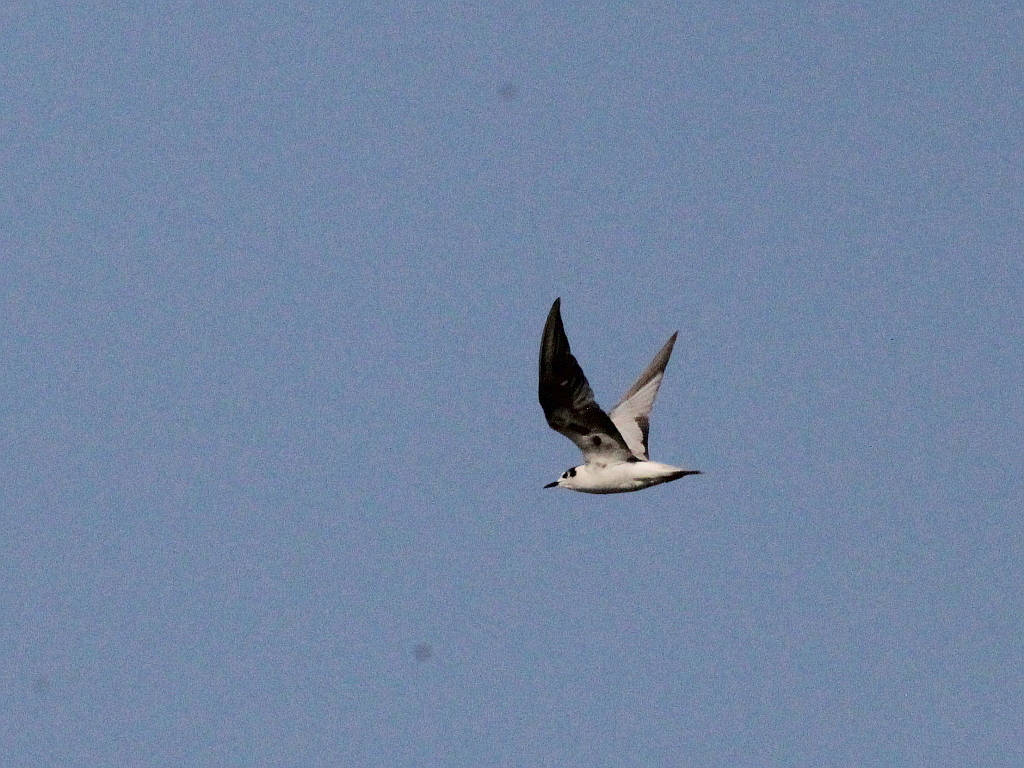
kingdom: Animalia
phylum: Chordata
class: Aves
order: Charadriiformes
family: Laridae
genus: Chlidonias
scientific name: Chlidonias leucopterus
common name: White-winged tern
